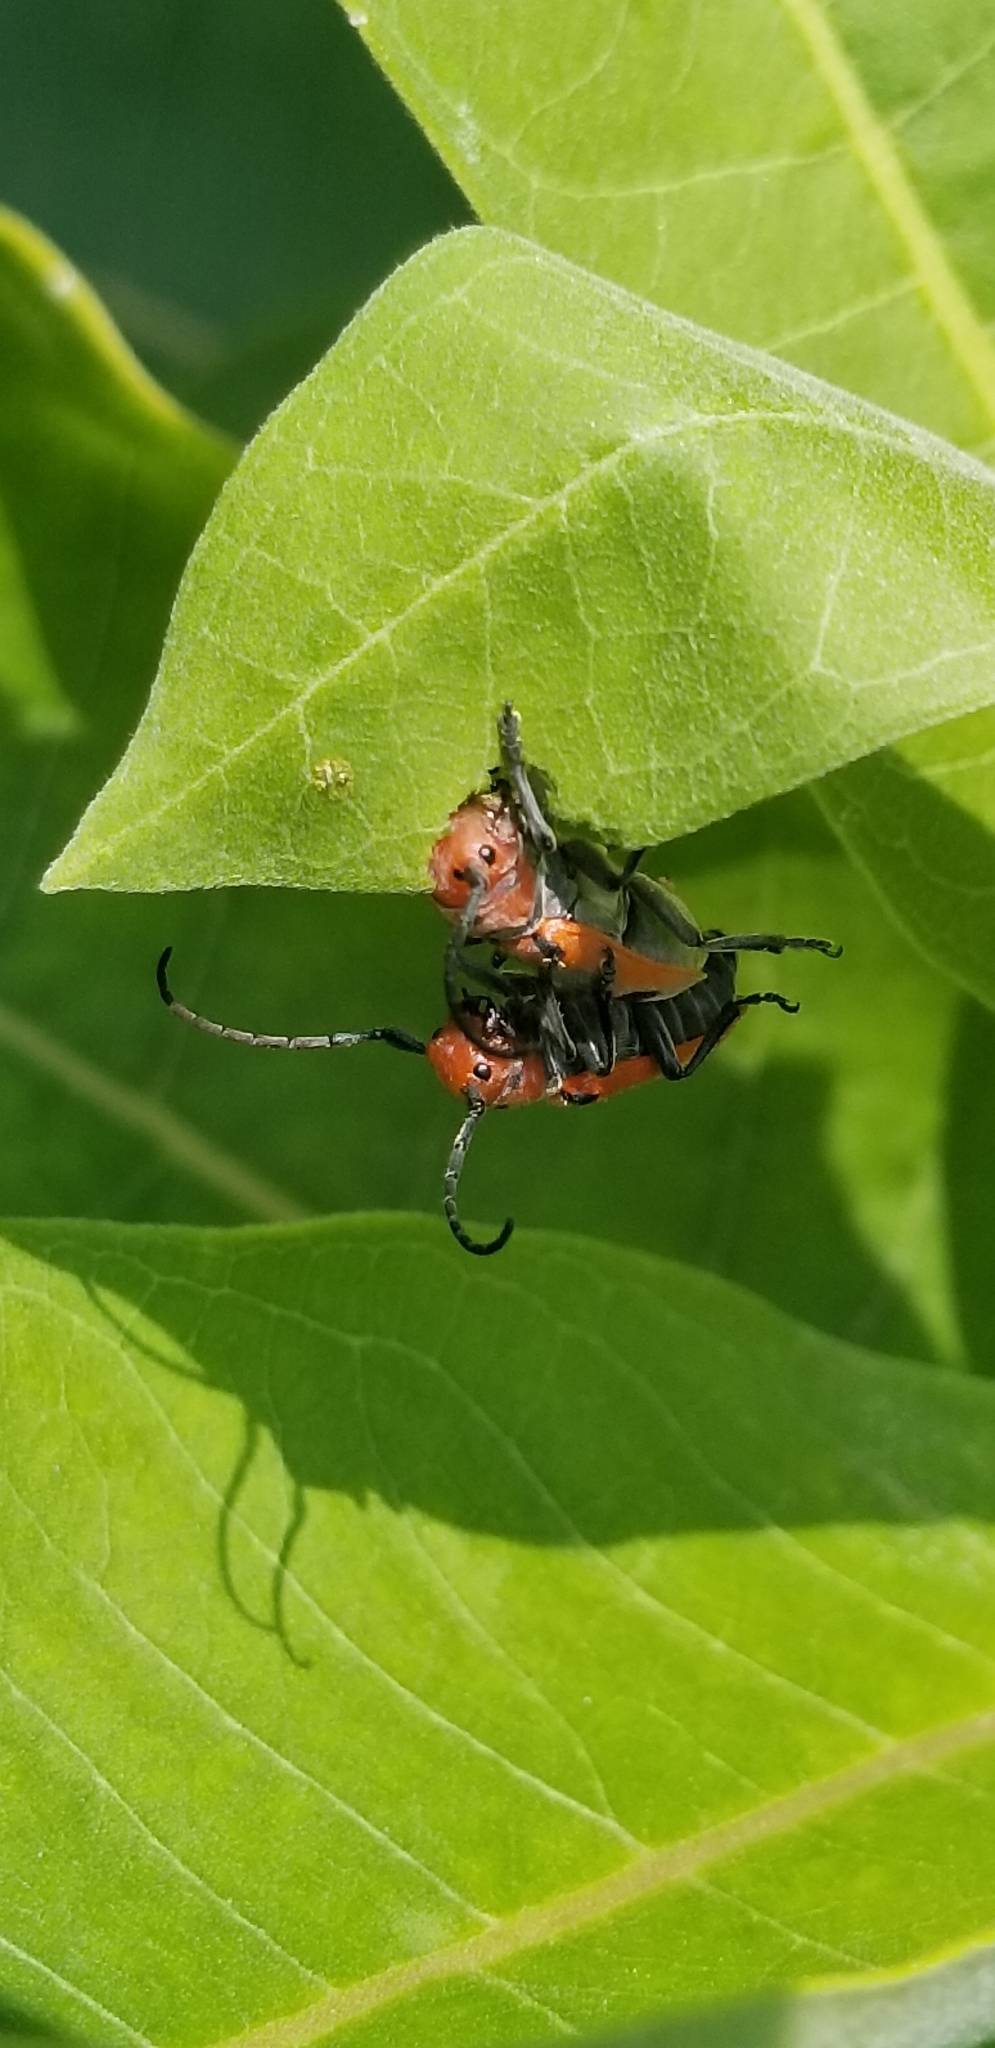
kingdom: Animalia
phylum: Arthropoda
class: Insecta
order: Coleoptera
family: Cerambycidae
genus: Tetraopes
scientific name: Tetraopes tetrophthalmus
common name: Red milkweed beetle
